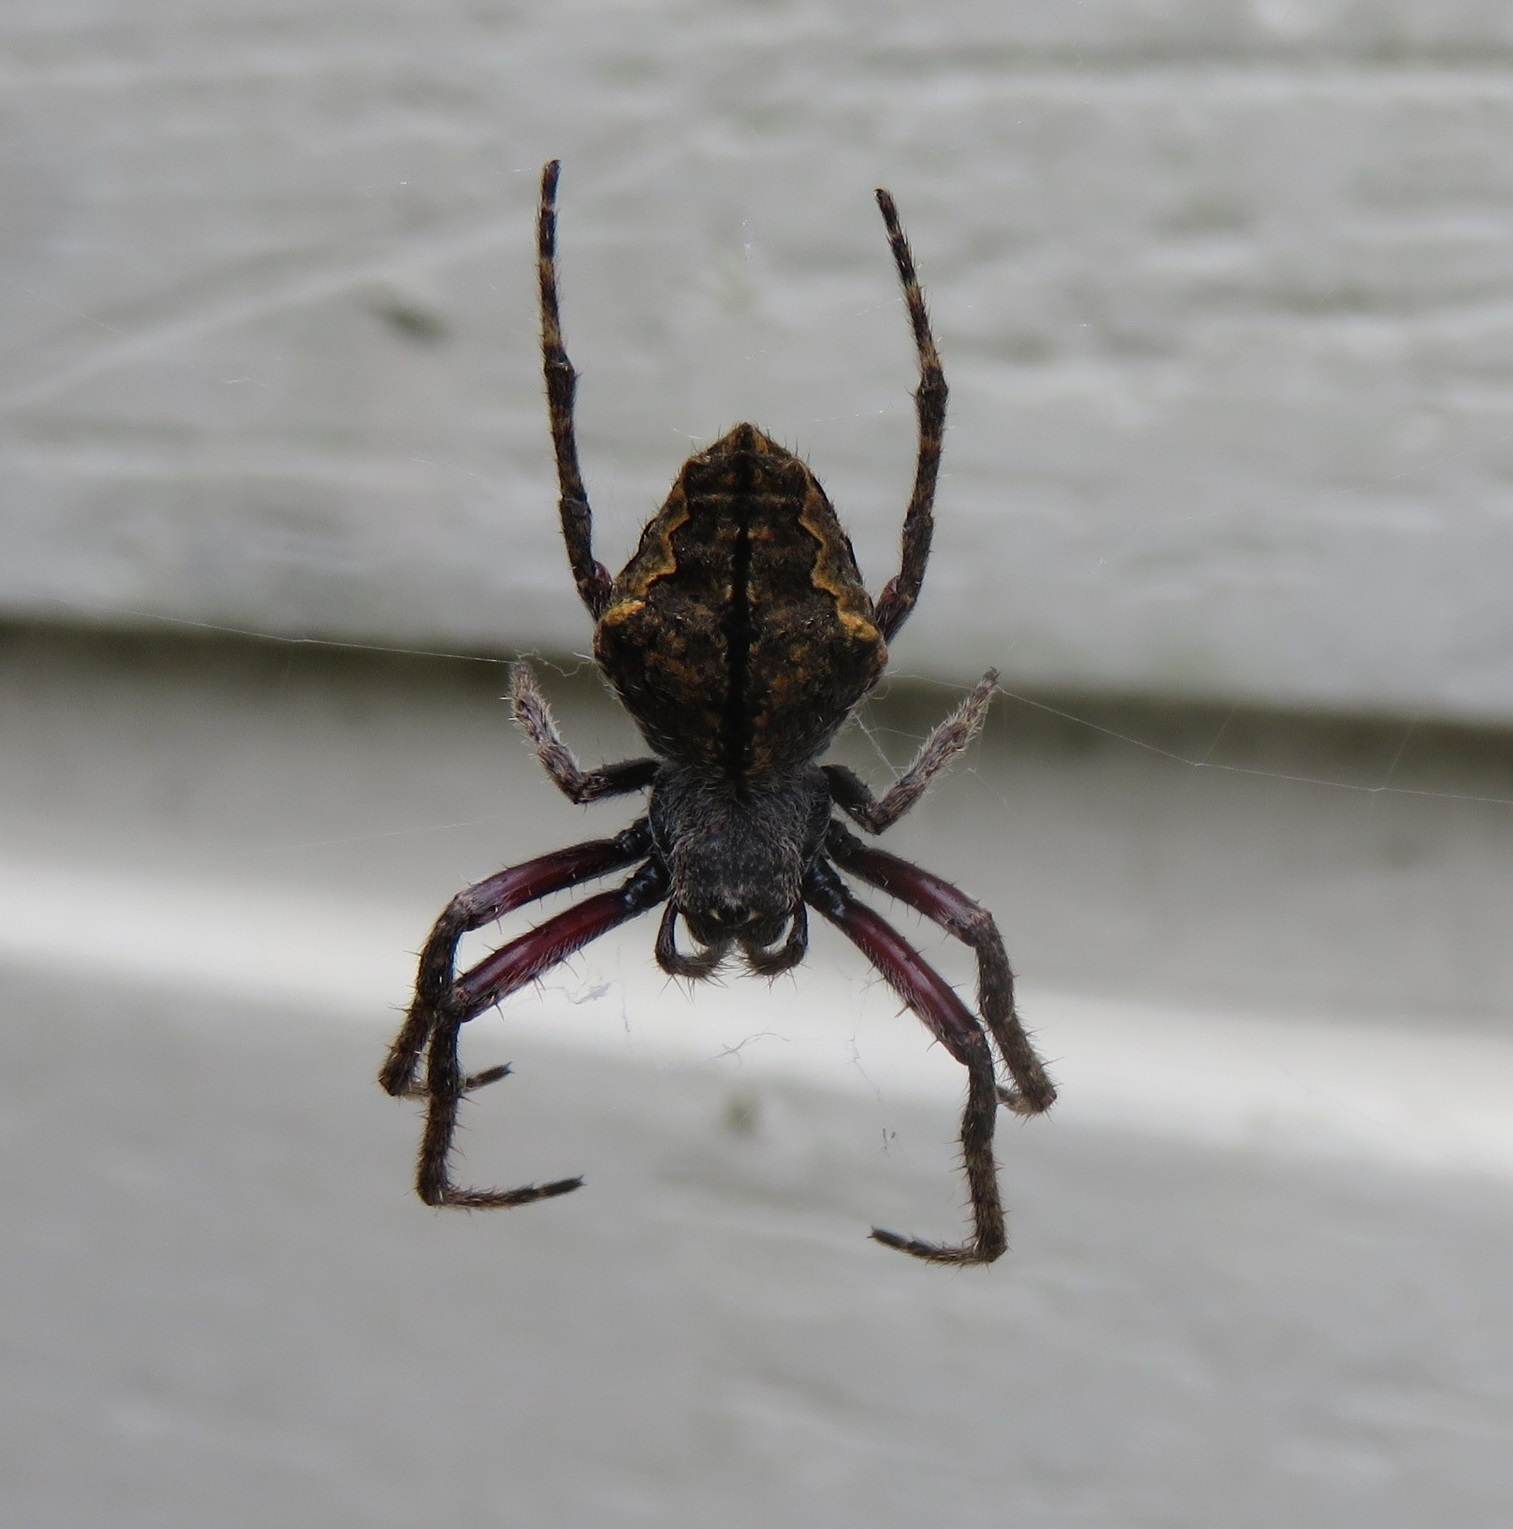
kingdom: Animalia
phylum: Arthropoda
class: Arachnida
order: Araneae
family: Araneidae
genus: Eriophora
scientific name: Eriophora pustulosa
